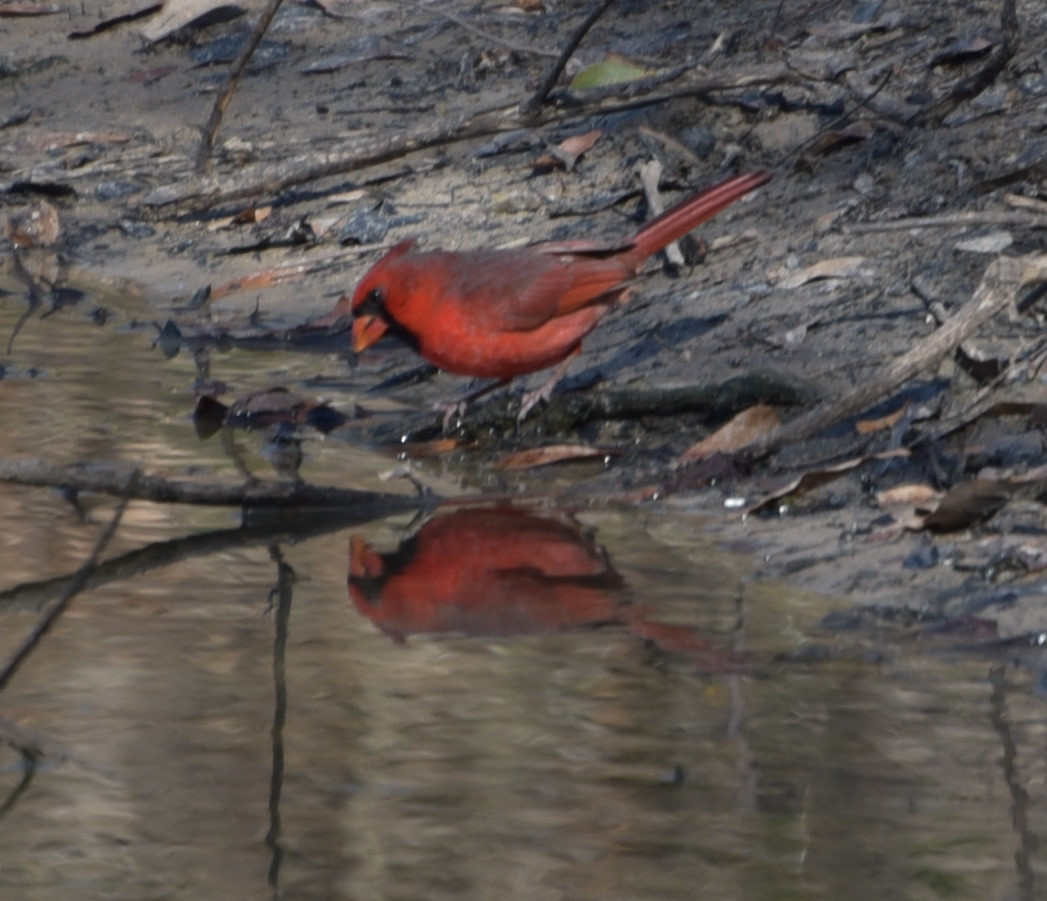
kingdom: Animalia
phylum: Chordata
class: Aves
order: Passeriformes
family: Cardinalidae
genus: Cardinalis
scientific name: Cardinalis cardinalis
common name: Northern cardinal
